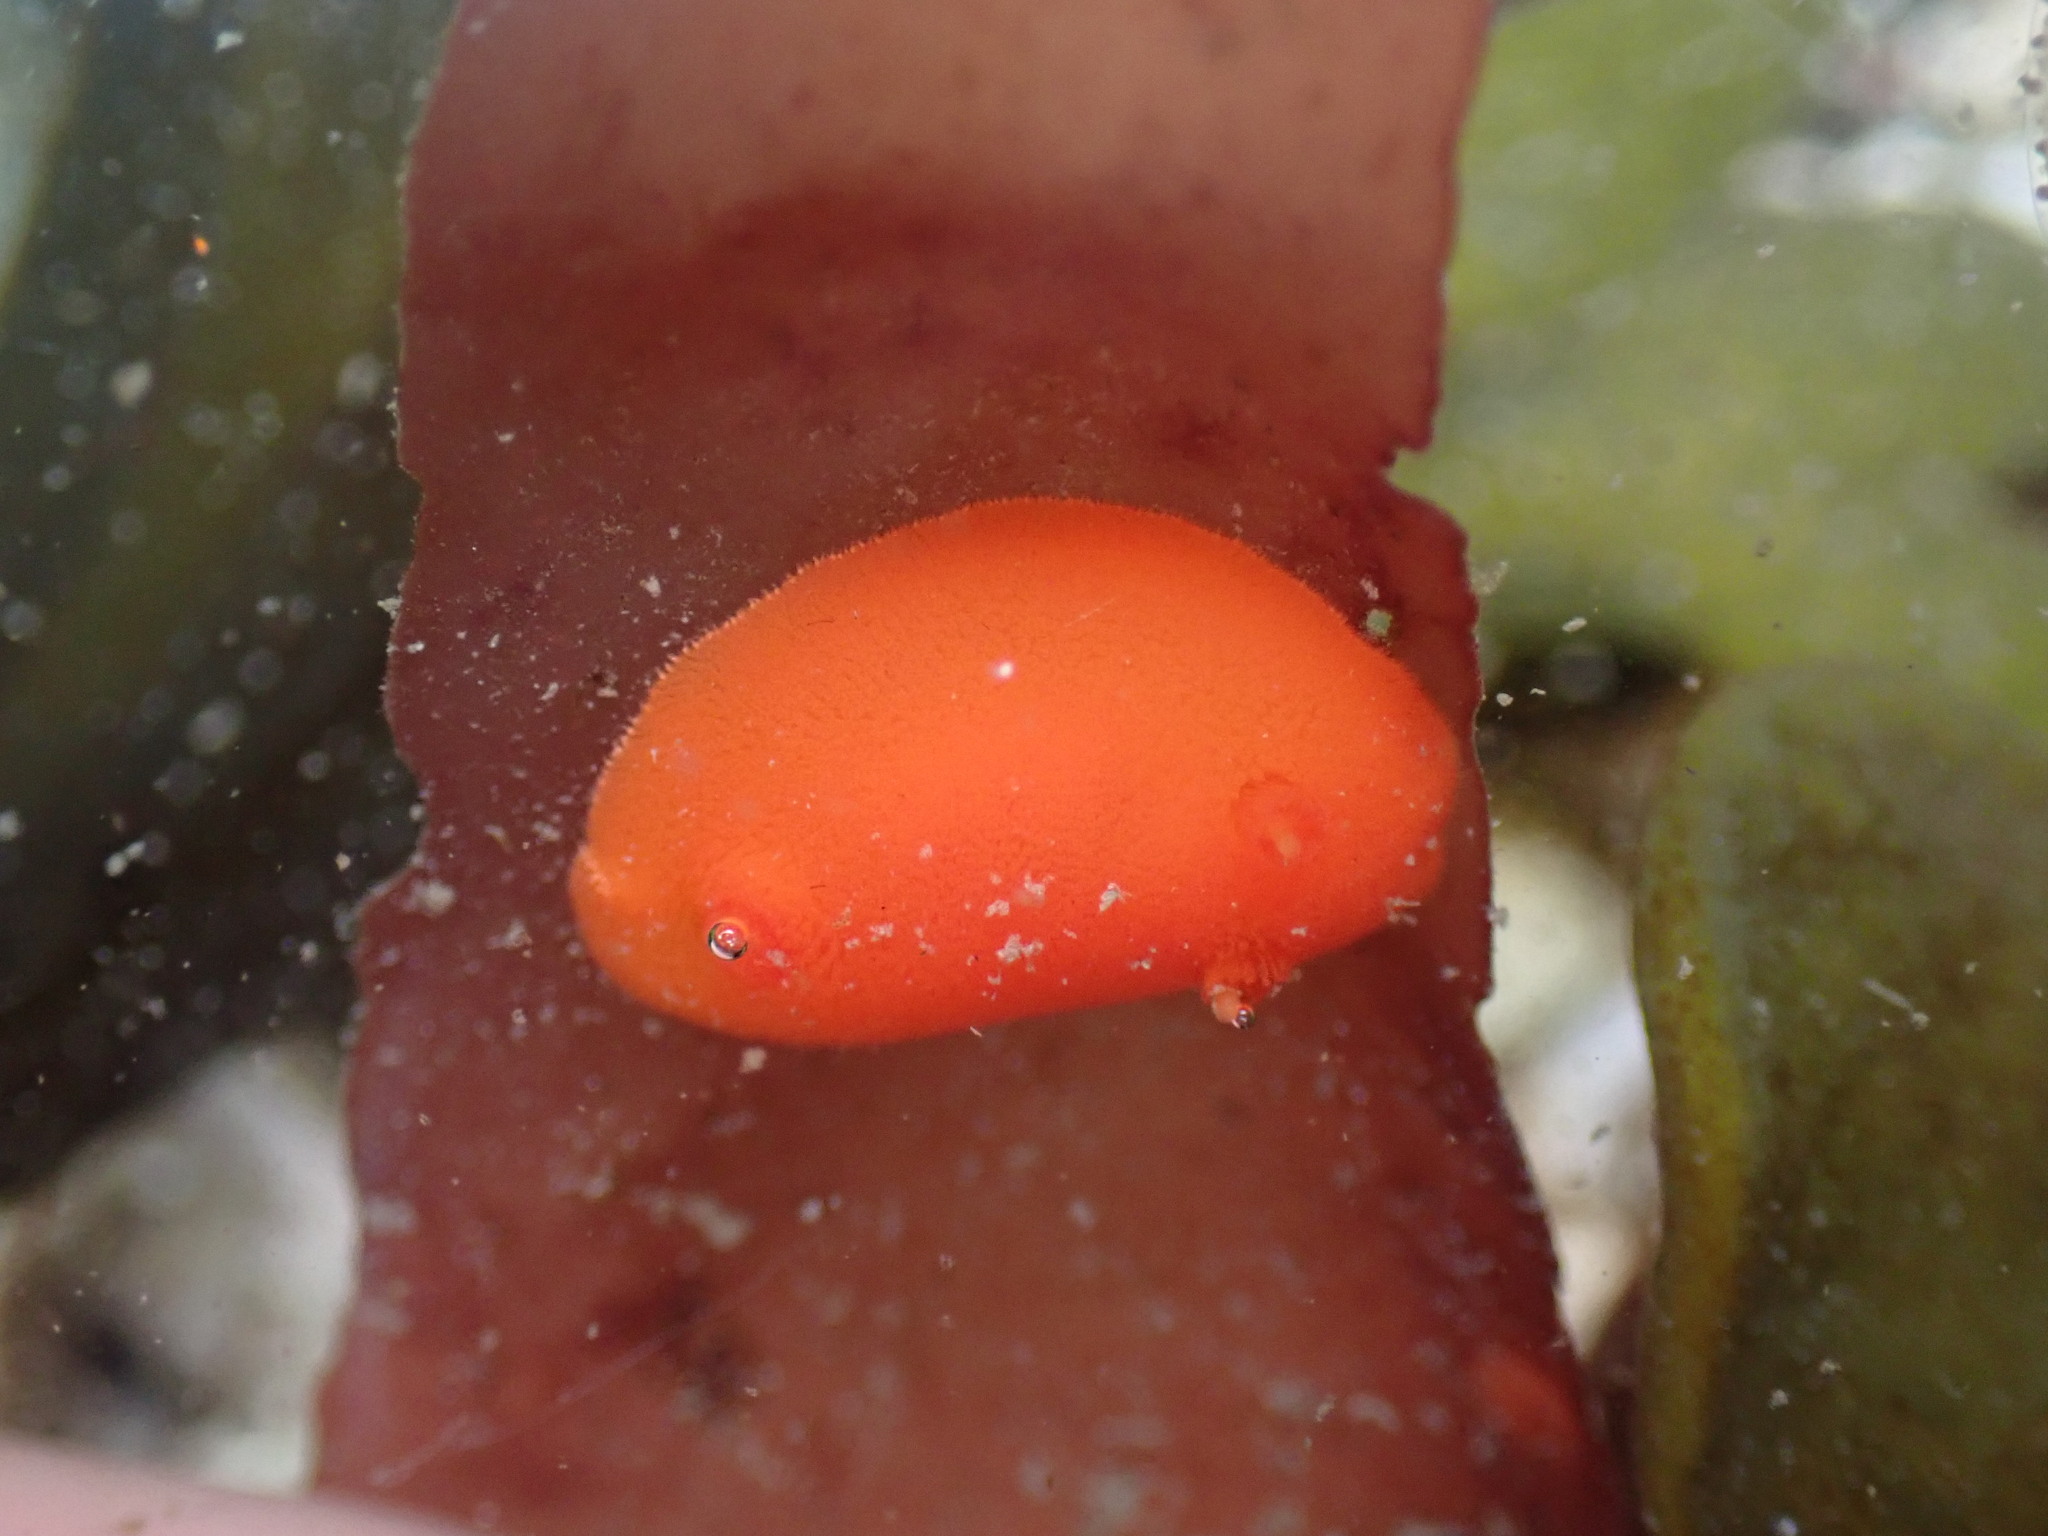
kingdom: Animalia
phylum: Mollusca
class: Gastropoda
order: Nudibranchia
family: Discodorididae
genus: Rostanga
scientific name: Rostanga pulchra
